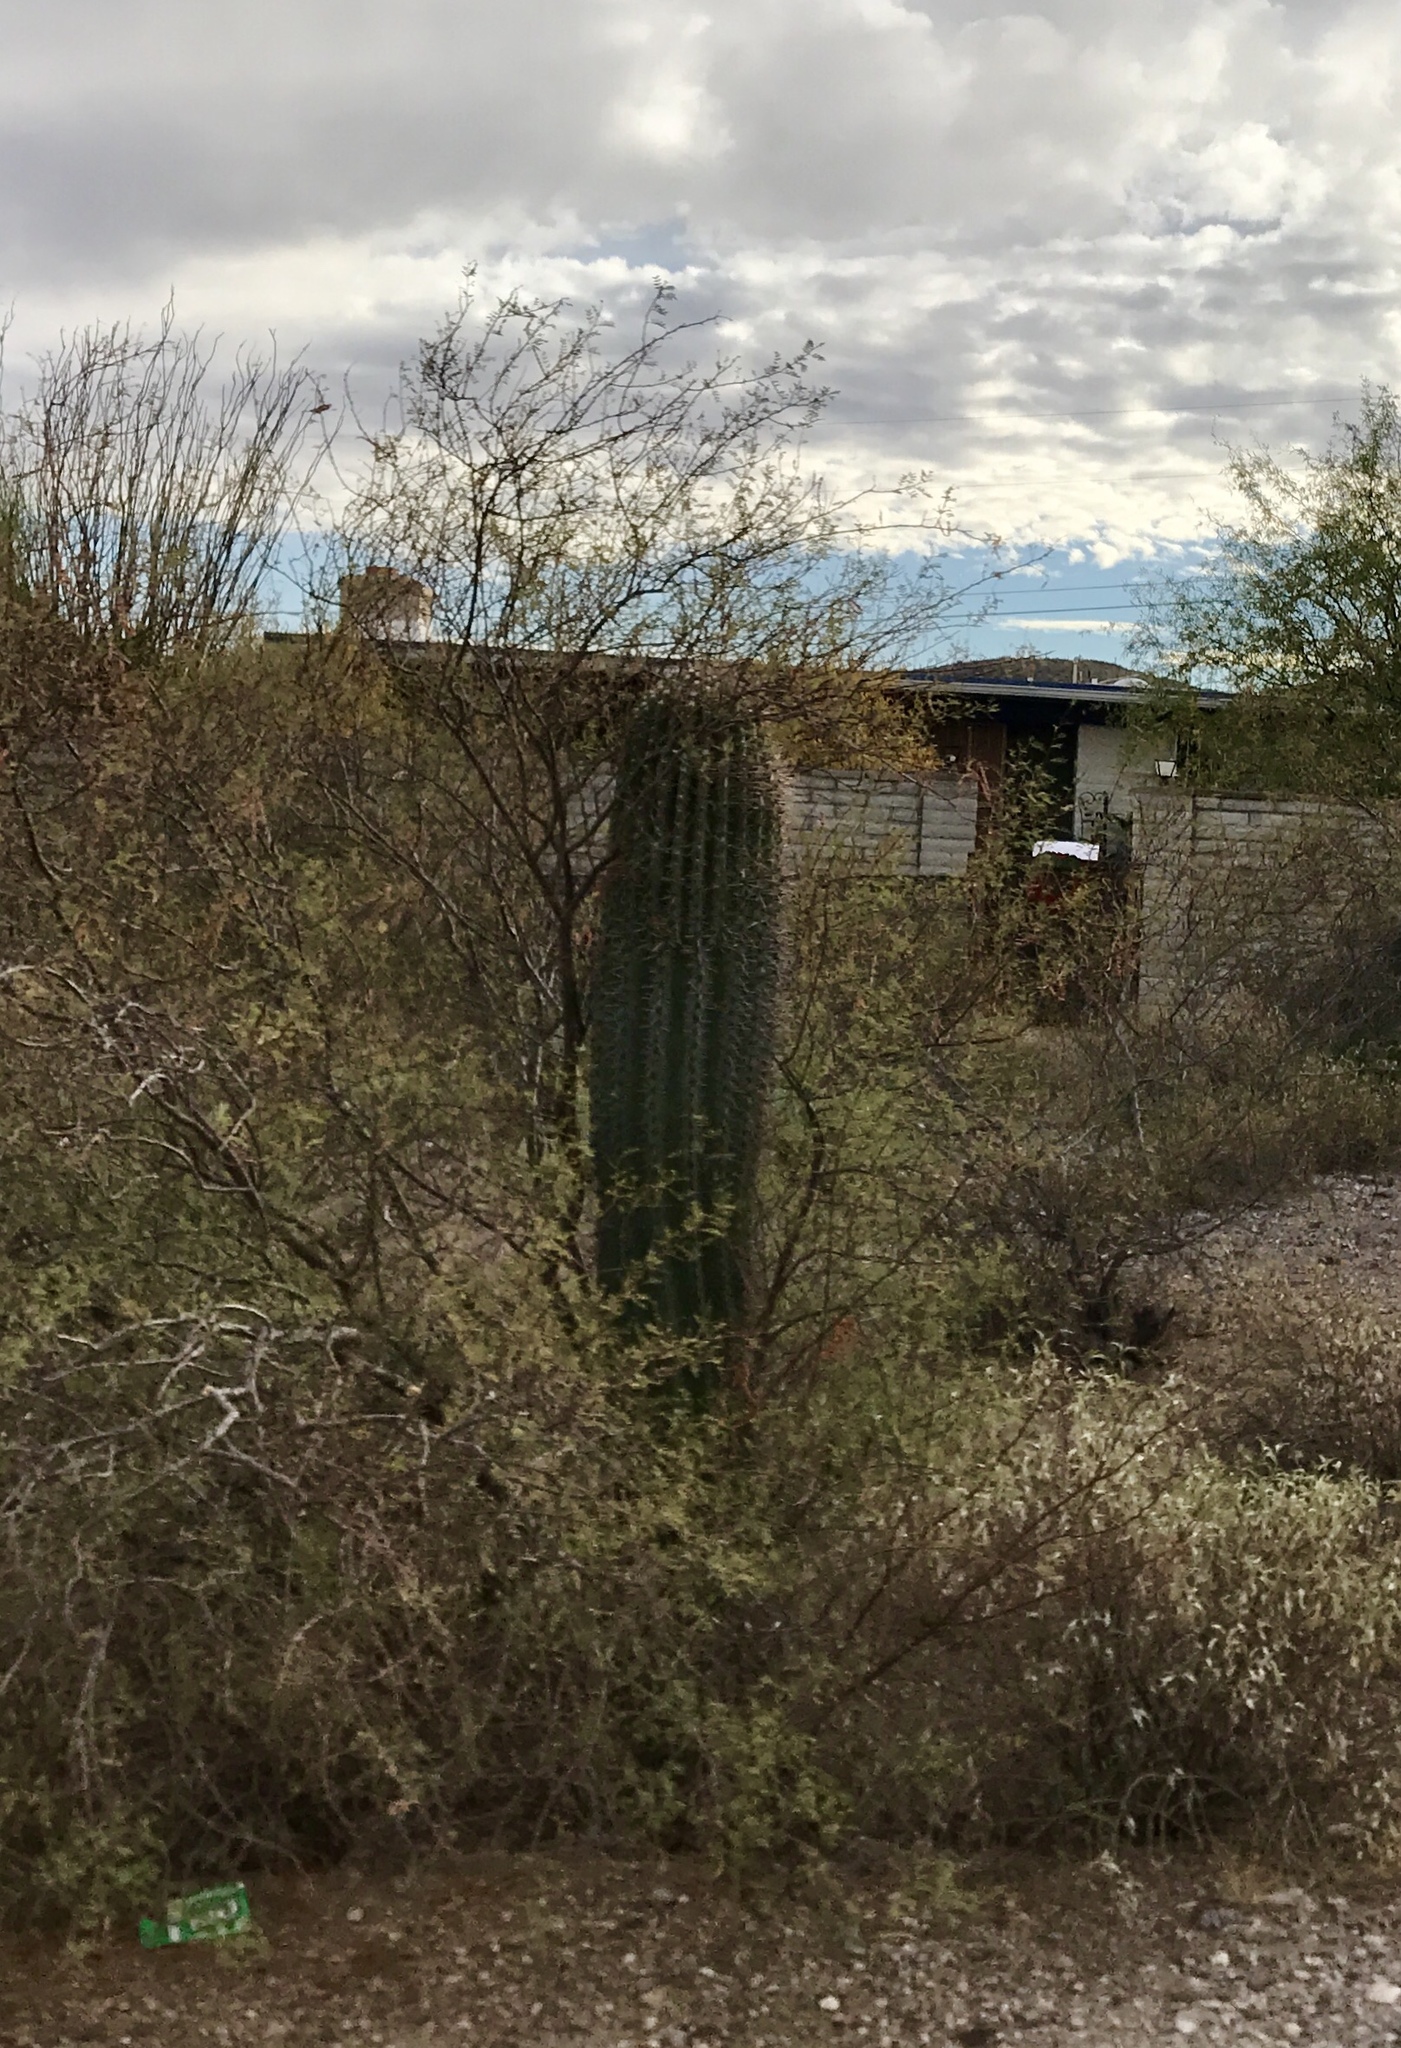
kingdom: Plantae
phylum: Tracheophyta
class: Magnoliopsida
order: Zygophyllales
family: Zygophyllaceae
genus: Larrea
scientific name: Larrea tridentata
